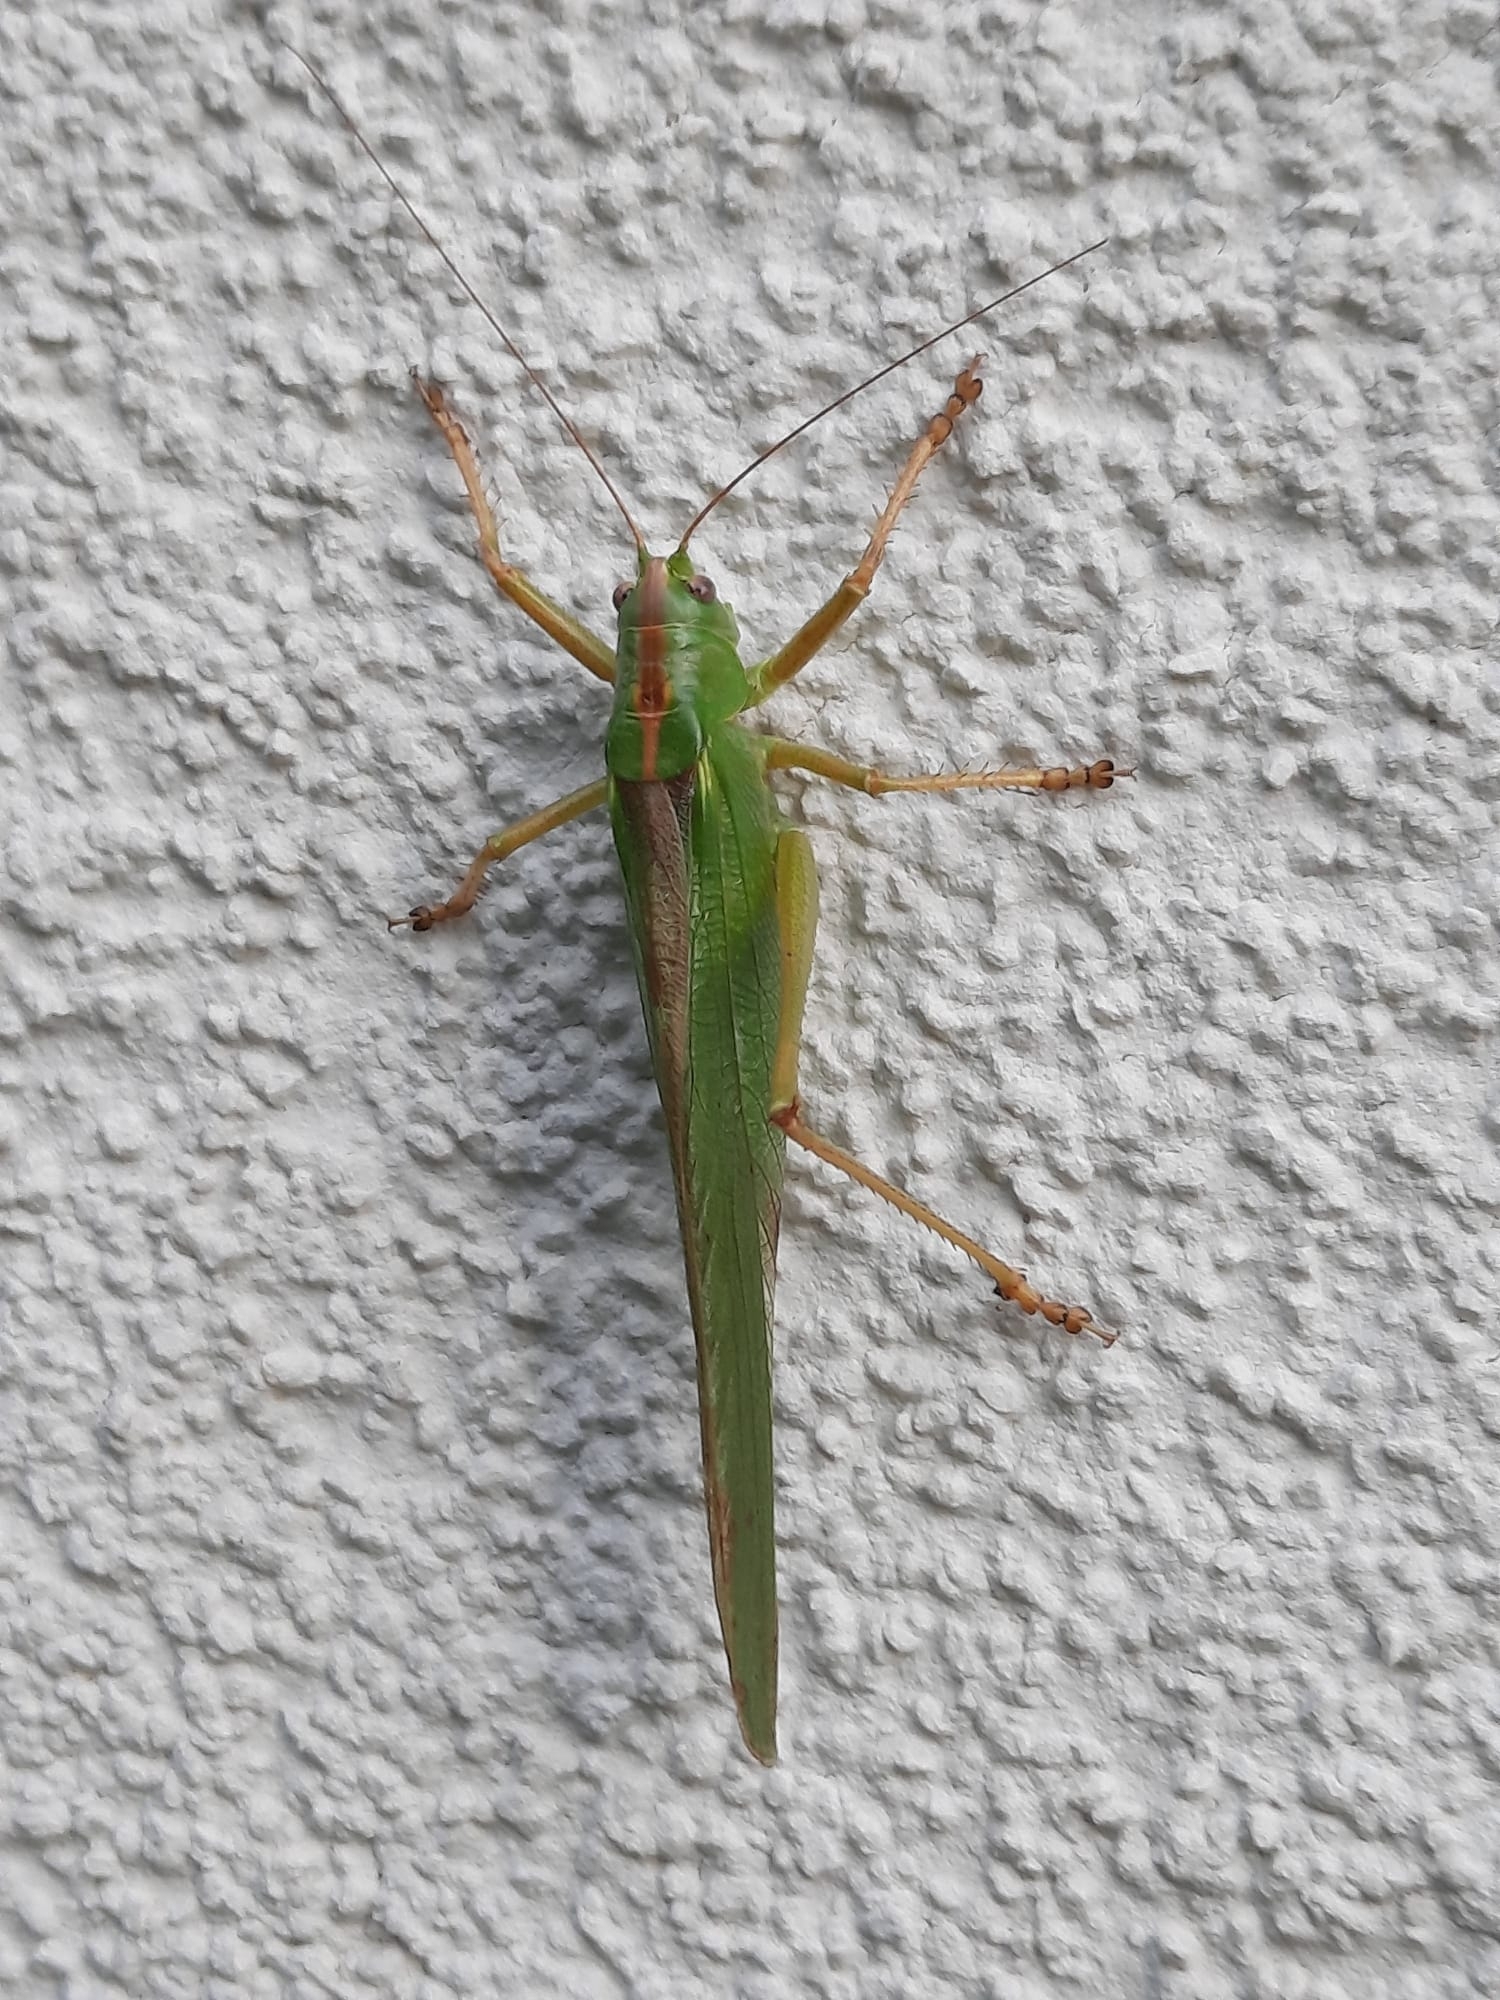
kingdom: Animalia
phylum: Arthropoda
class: Insecta
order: Orthoptera
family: Tettigoniidae
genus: Tettigonia
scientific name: Tettigonia viridissima
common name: Great green bush-cricket
